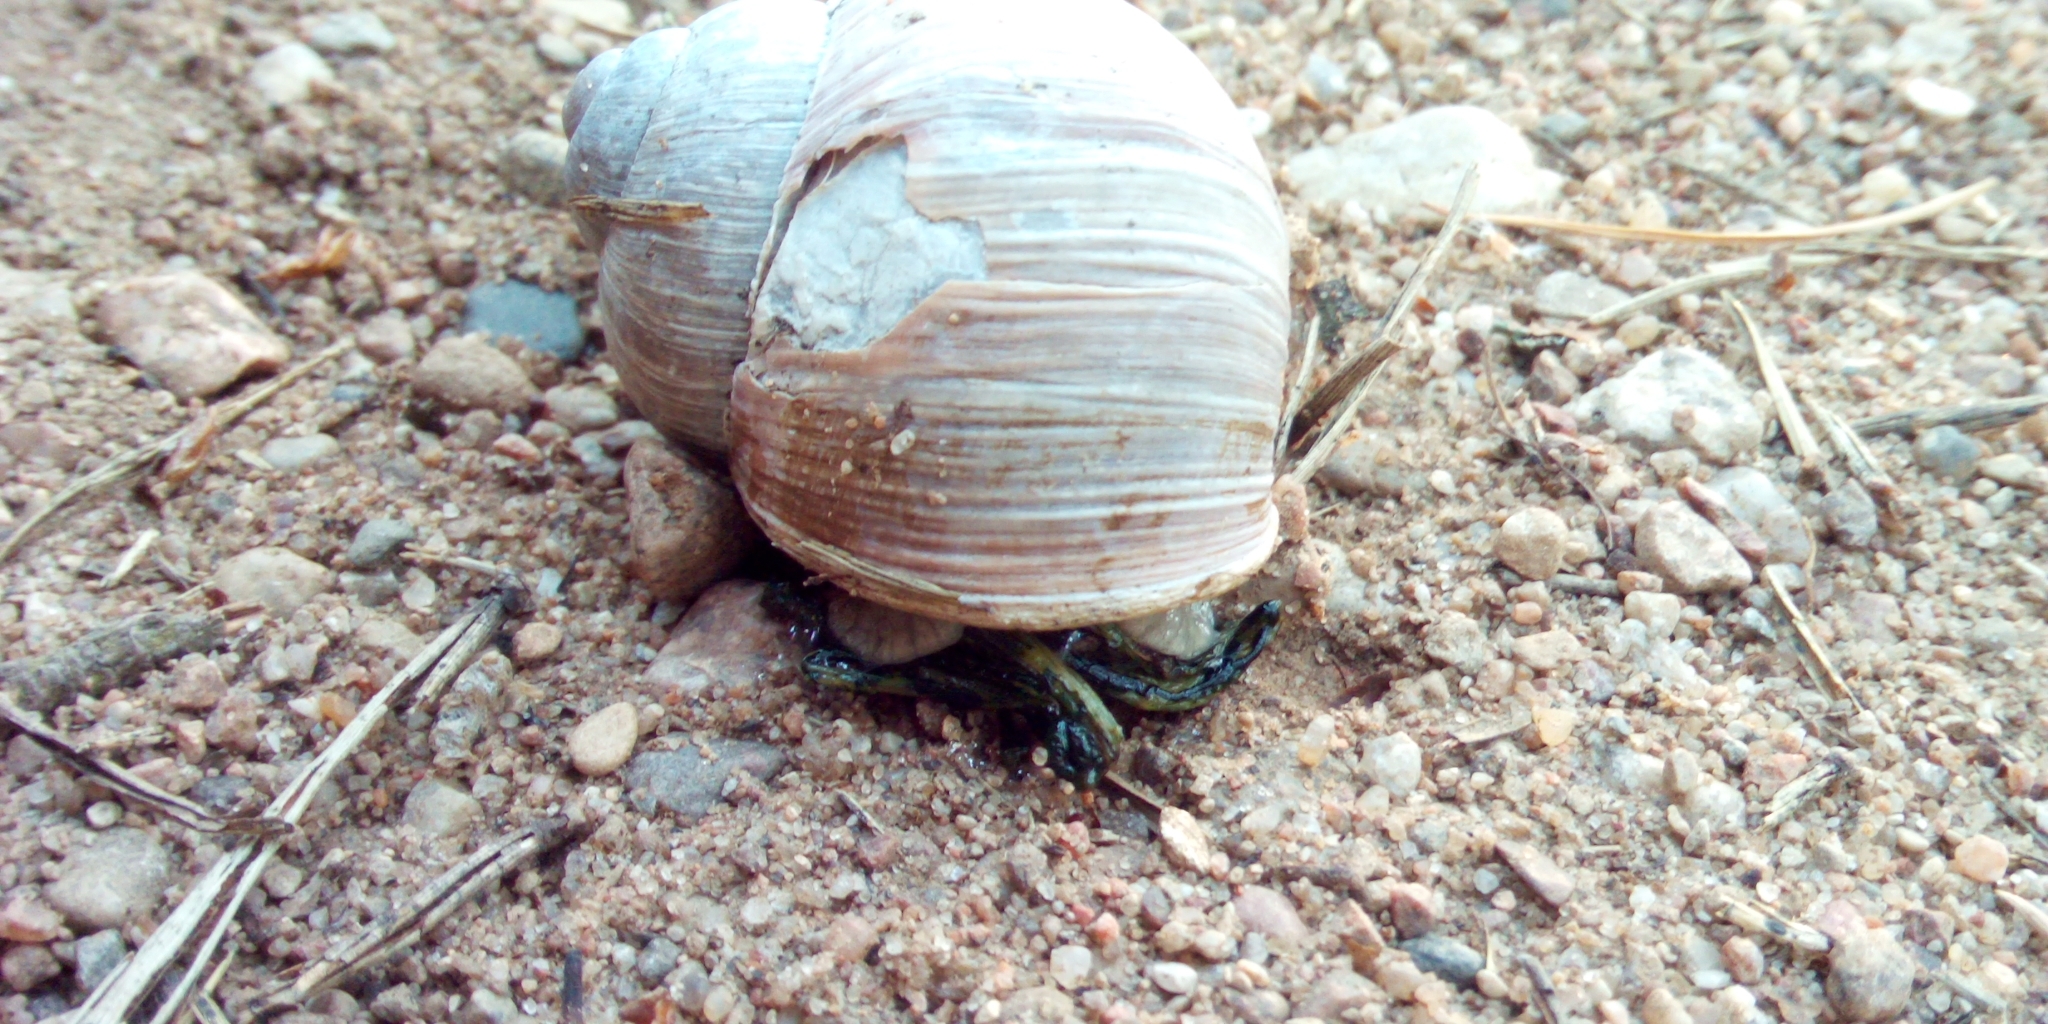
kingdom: Animalia
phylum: Mollusca
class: Gastropoda
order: Stylommatophora
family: Helicidae
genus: Helix
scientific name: Helix pomatia
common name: Roman snail
